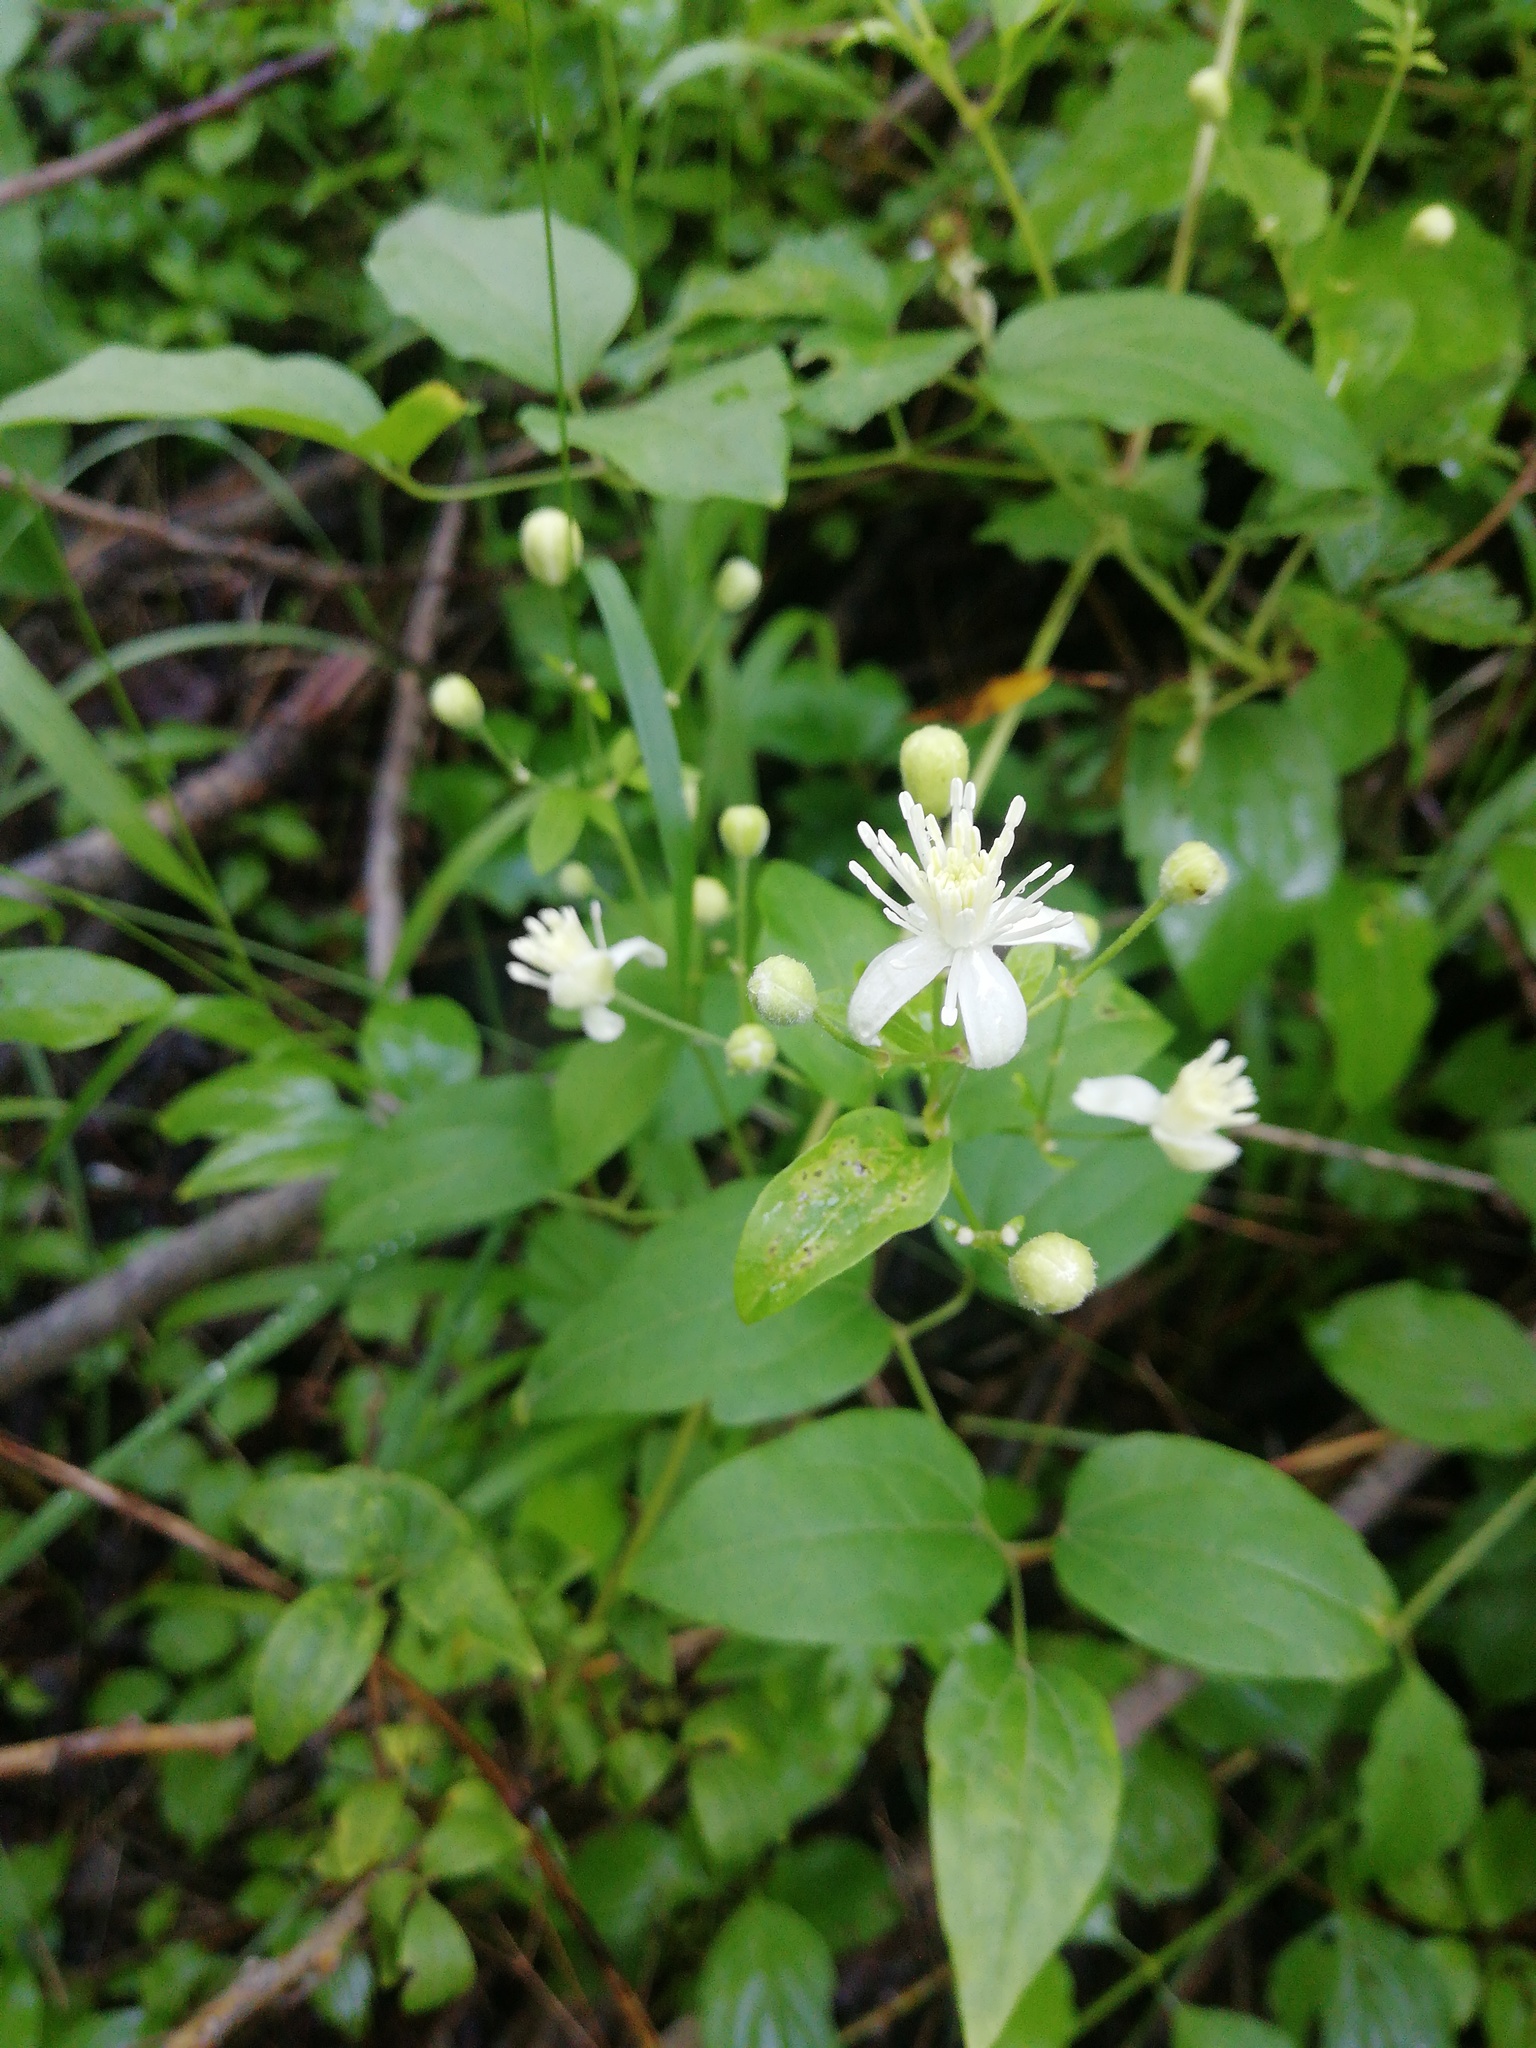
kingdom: Plantae
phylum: Tracheophyta
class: Magnoliopsida
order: Ranunculales
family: Ranunculaceae
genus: Clematis
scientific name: Clematis vitalba
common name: Evergreen clematis
